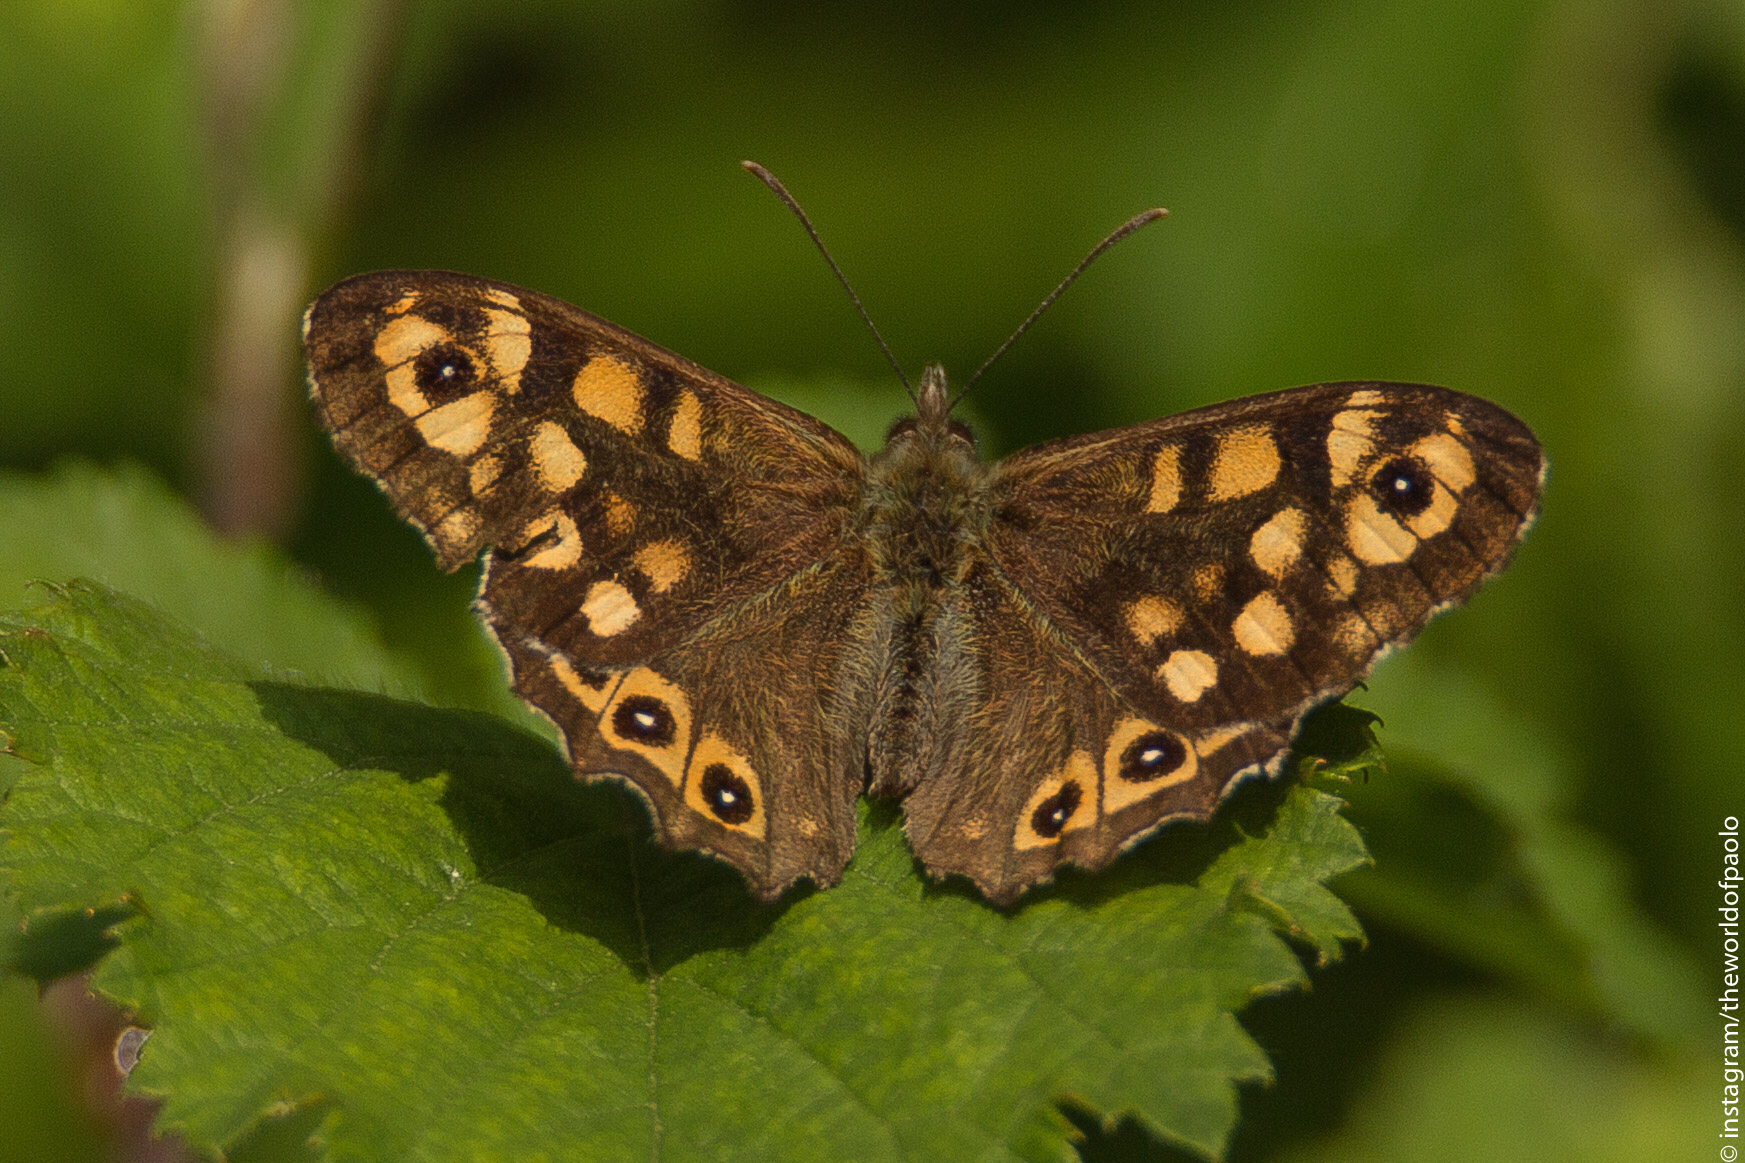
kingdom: Animalia
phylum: Arthropoda
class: Insecta
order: Lepidoptera
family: Nymphalidae
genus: Pararge
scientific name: Pararge aegeria
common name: Speckled wood
